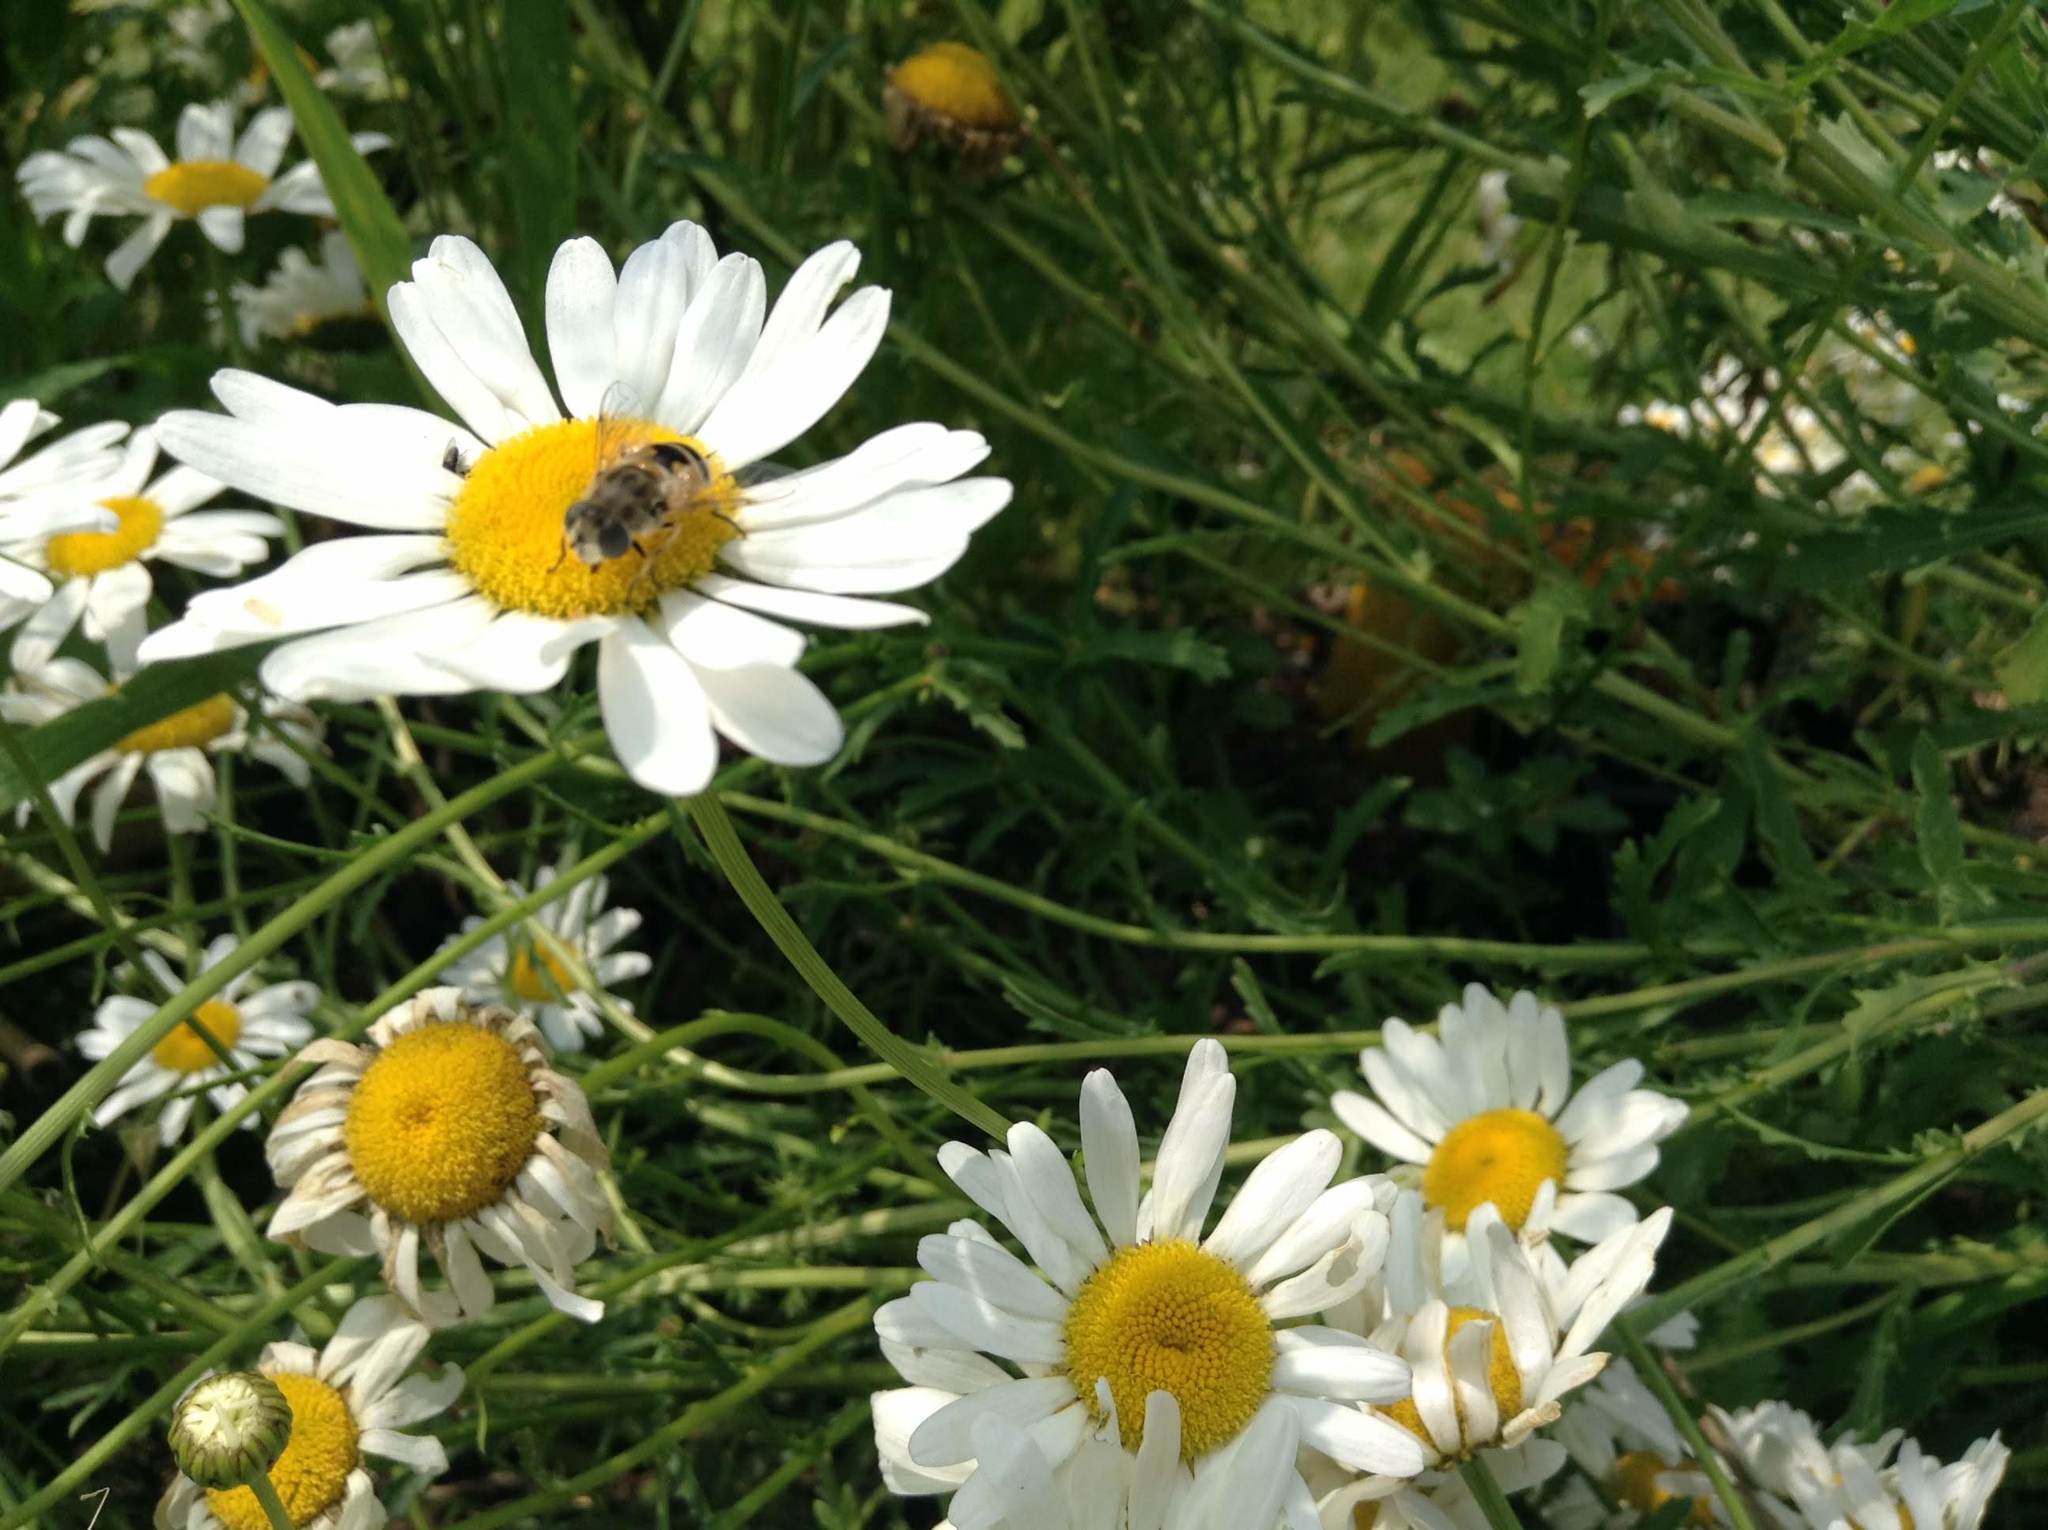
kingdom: Animalia
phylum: Arthropoda
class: Insecta
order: Diptera
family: Syrphidae
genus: Eristalis
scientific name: Eristalis arbustorum
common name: Hover fly
